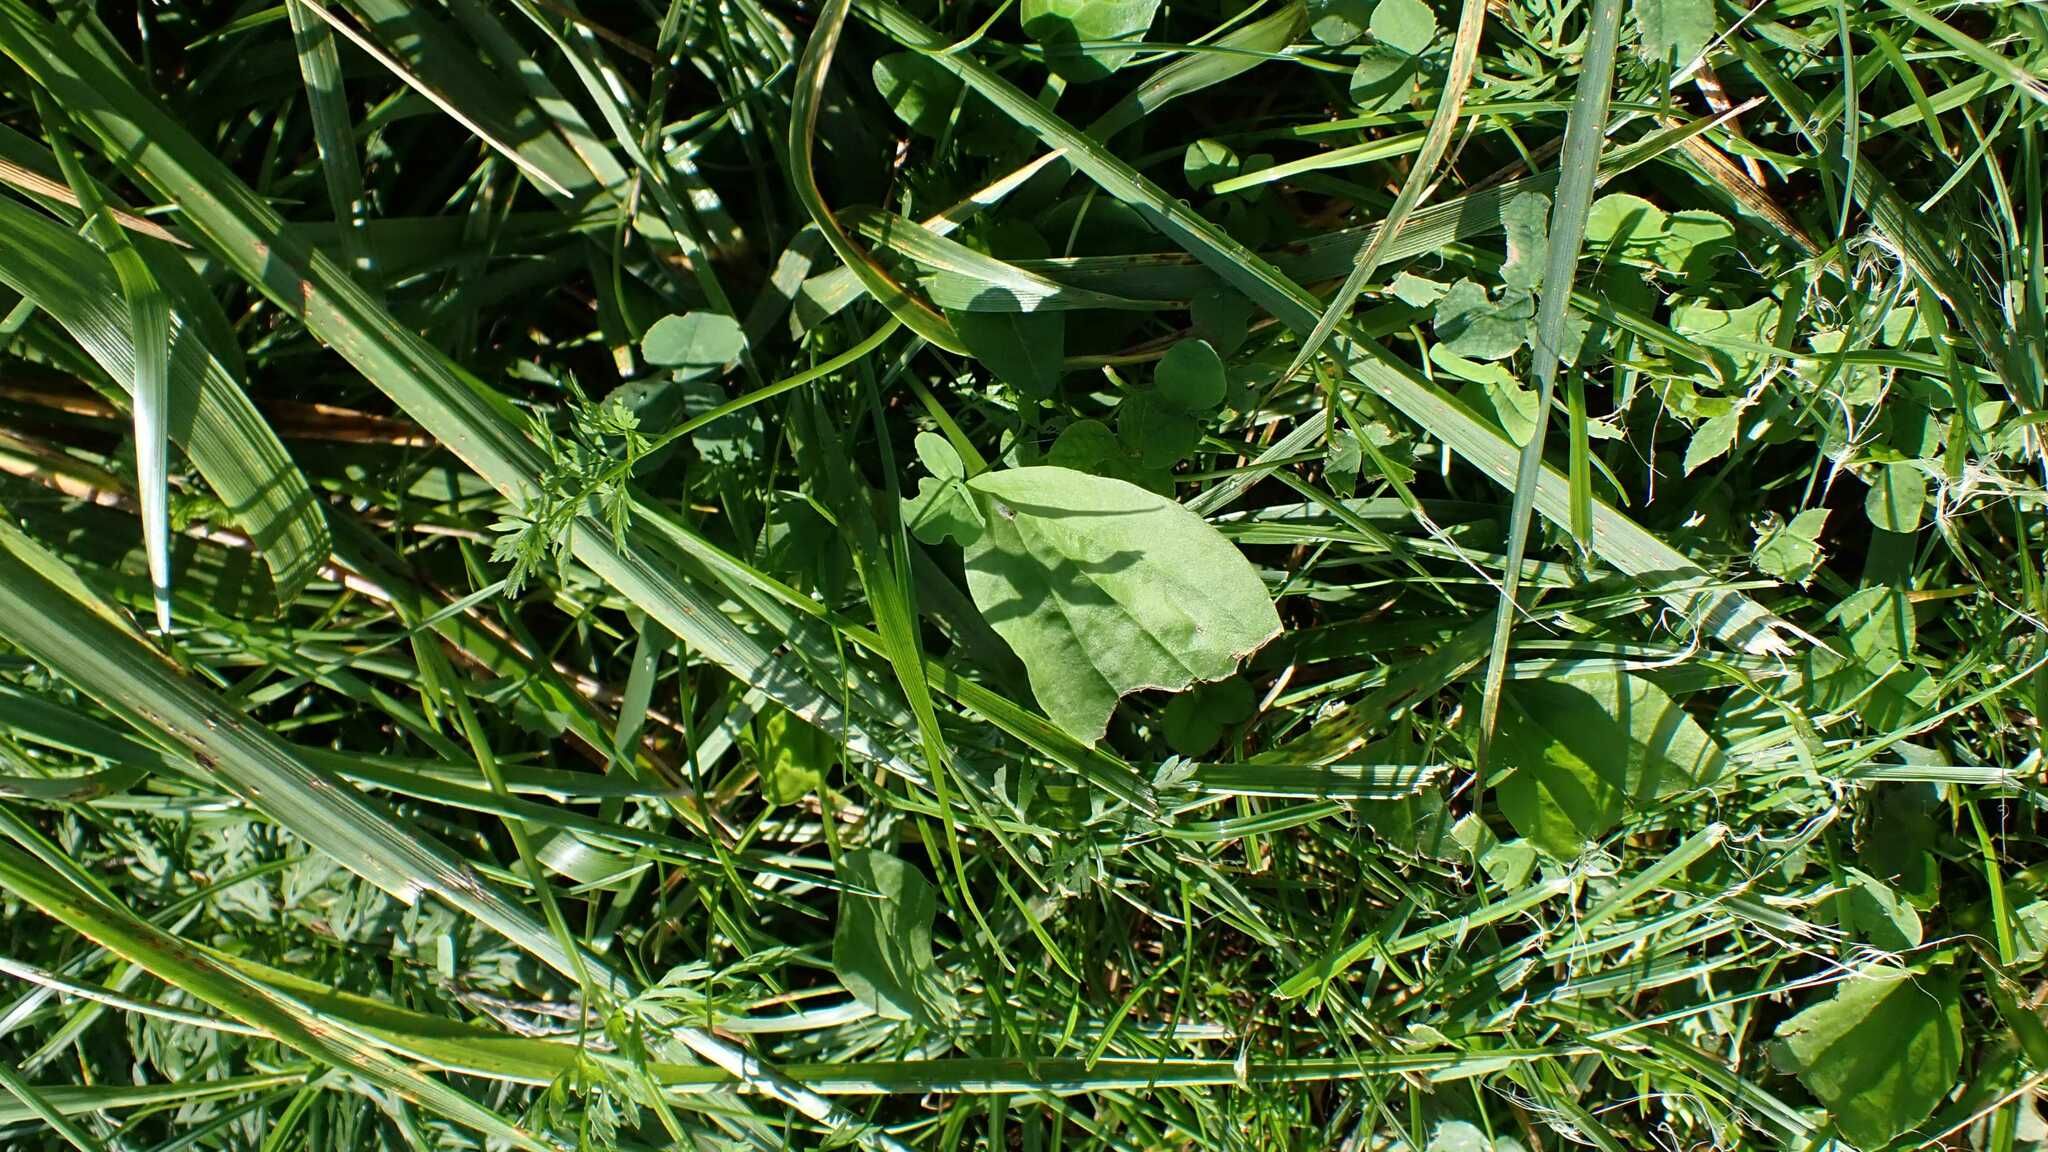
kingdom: Animalia
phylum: Arthropoda
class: Insecta
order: Hemiptera
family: Delphacidae
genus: Laodelphax
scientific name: Laodelphax striatellus
